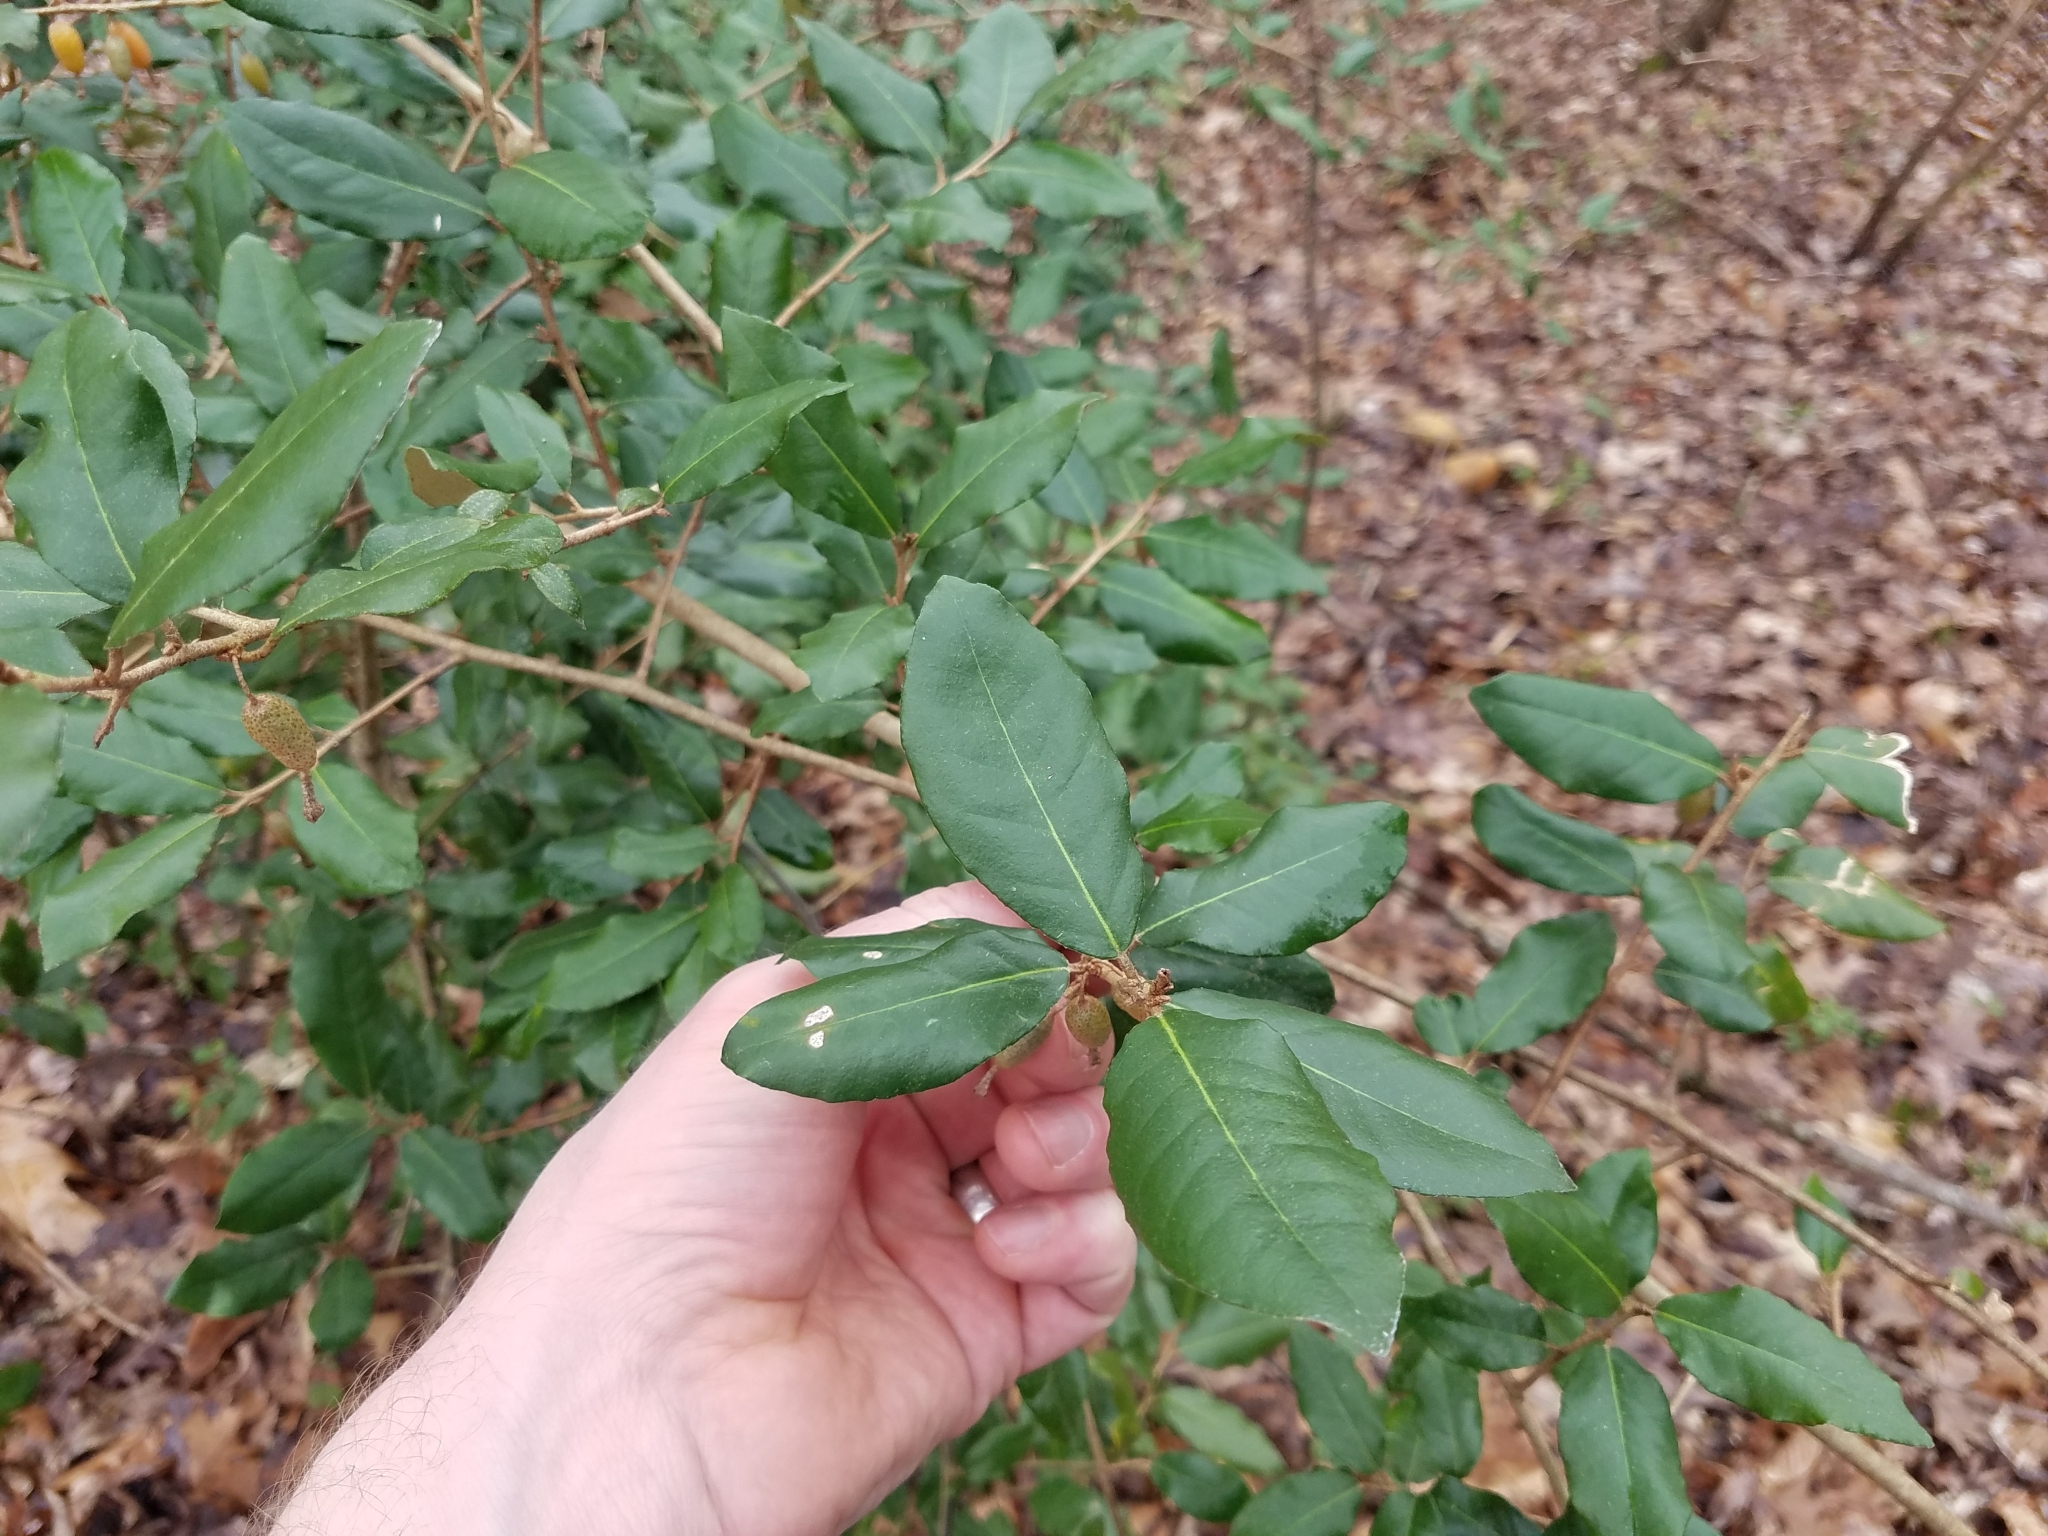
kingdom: Plantae
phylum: Tracheophyta
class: Magnoliopsida
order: Rosales
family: Elaeagnaceae
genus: Elaeagnus
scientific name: Elaeagnus pungens
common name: Spiny oleaster
